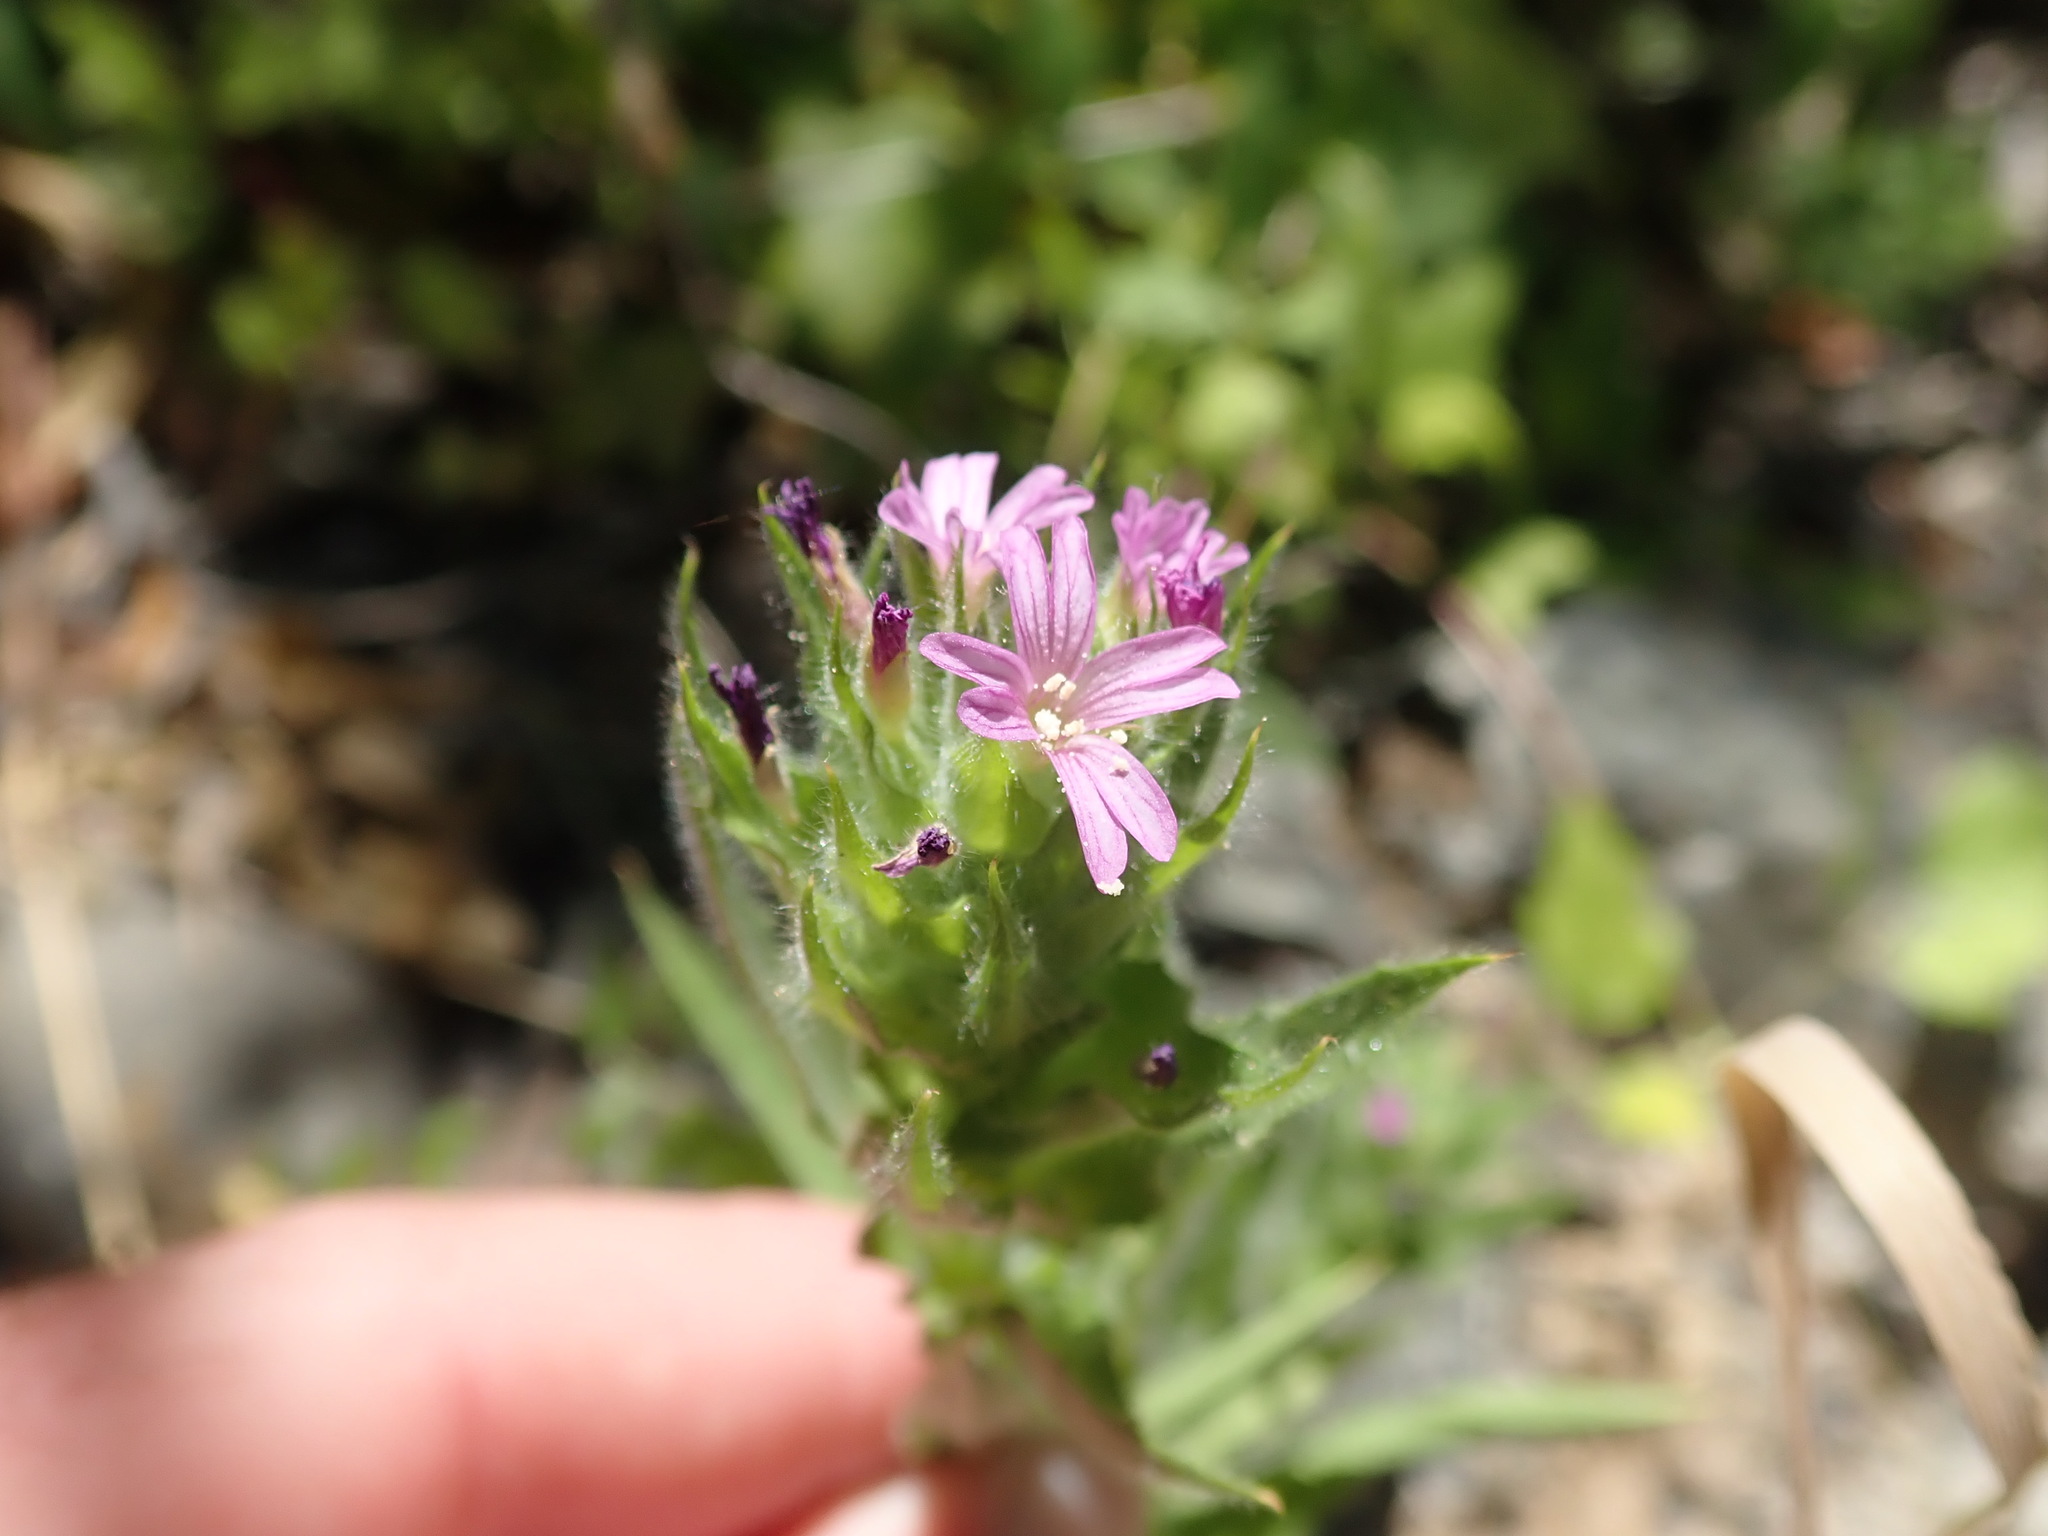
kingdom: Plantae
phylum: Tracheophyta
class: Magnoliopsida
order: Myrtales
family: Onagraceae
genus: Epilobium
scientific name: Epilobium densiflorum
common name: Dense spike-primrose
